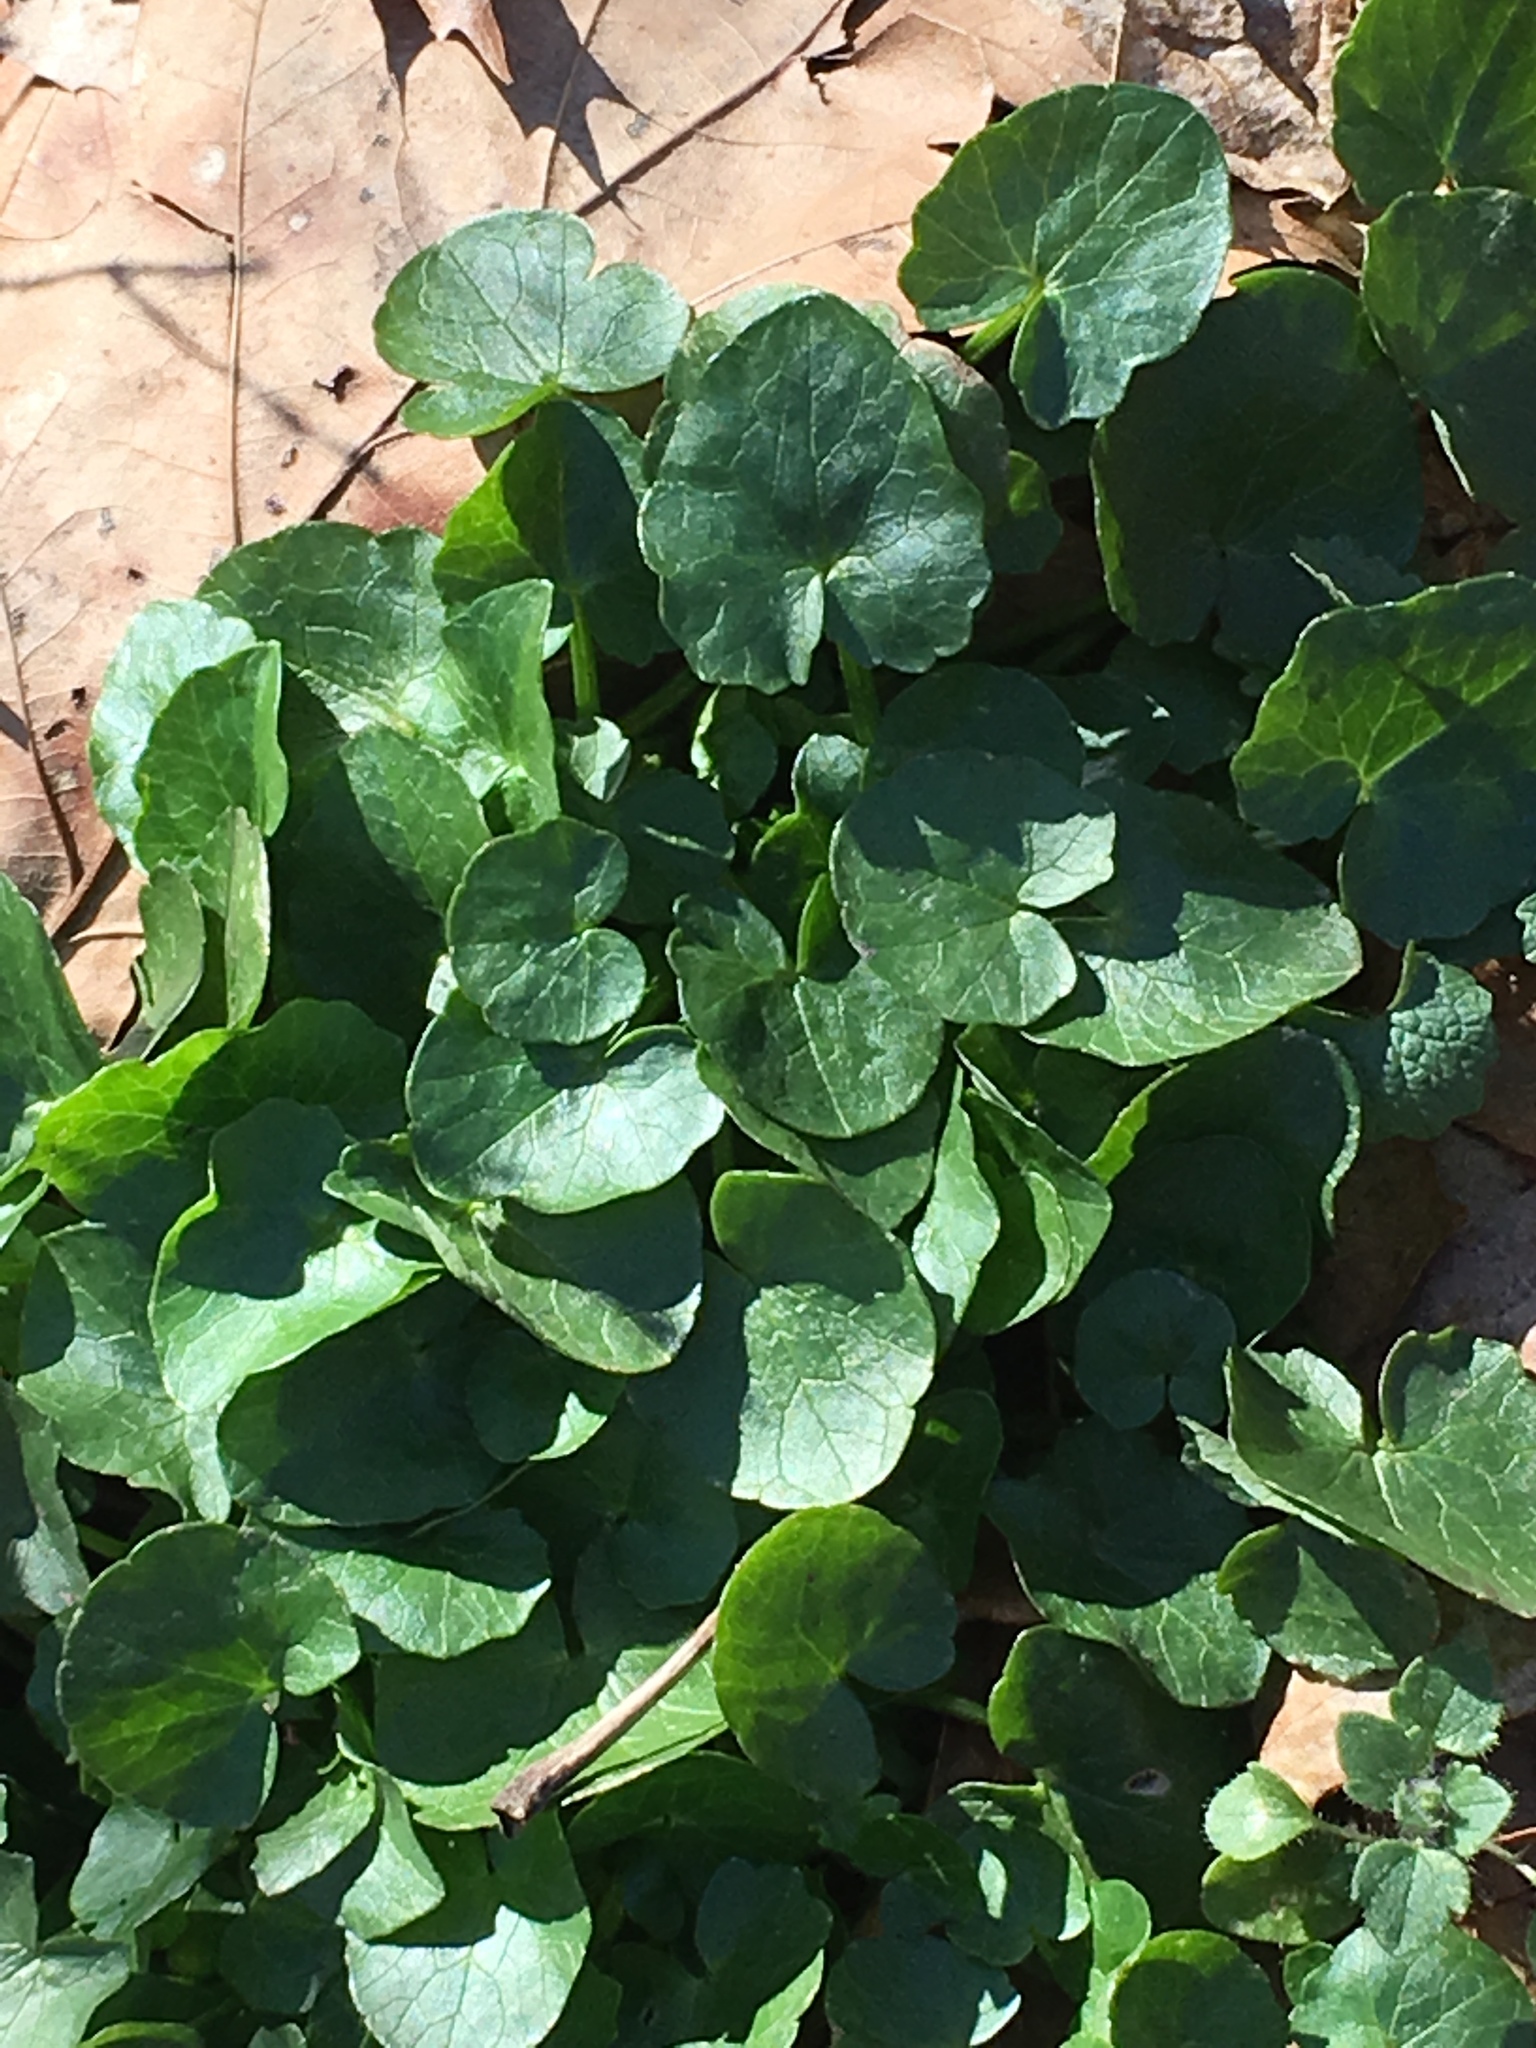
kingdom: Plantae
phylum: Tracheophyta
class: Magnoliopsida
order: Ranunculales
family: Ranunculaceae
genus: Ficaria
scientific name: Ficaria verna
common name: Lesser celandine
